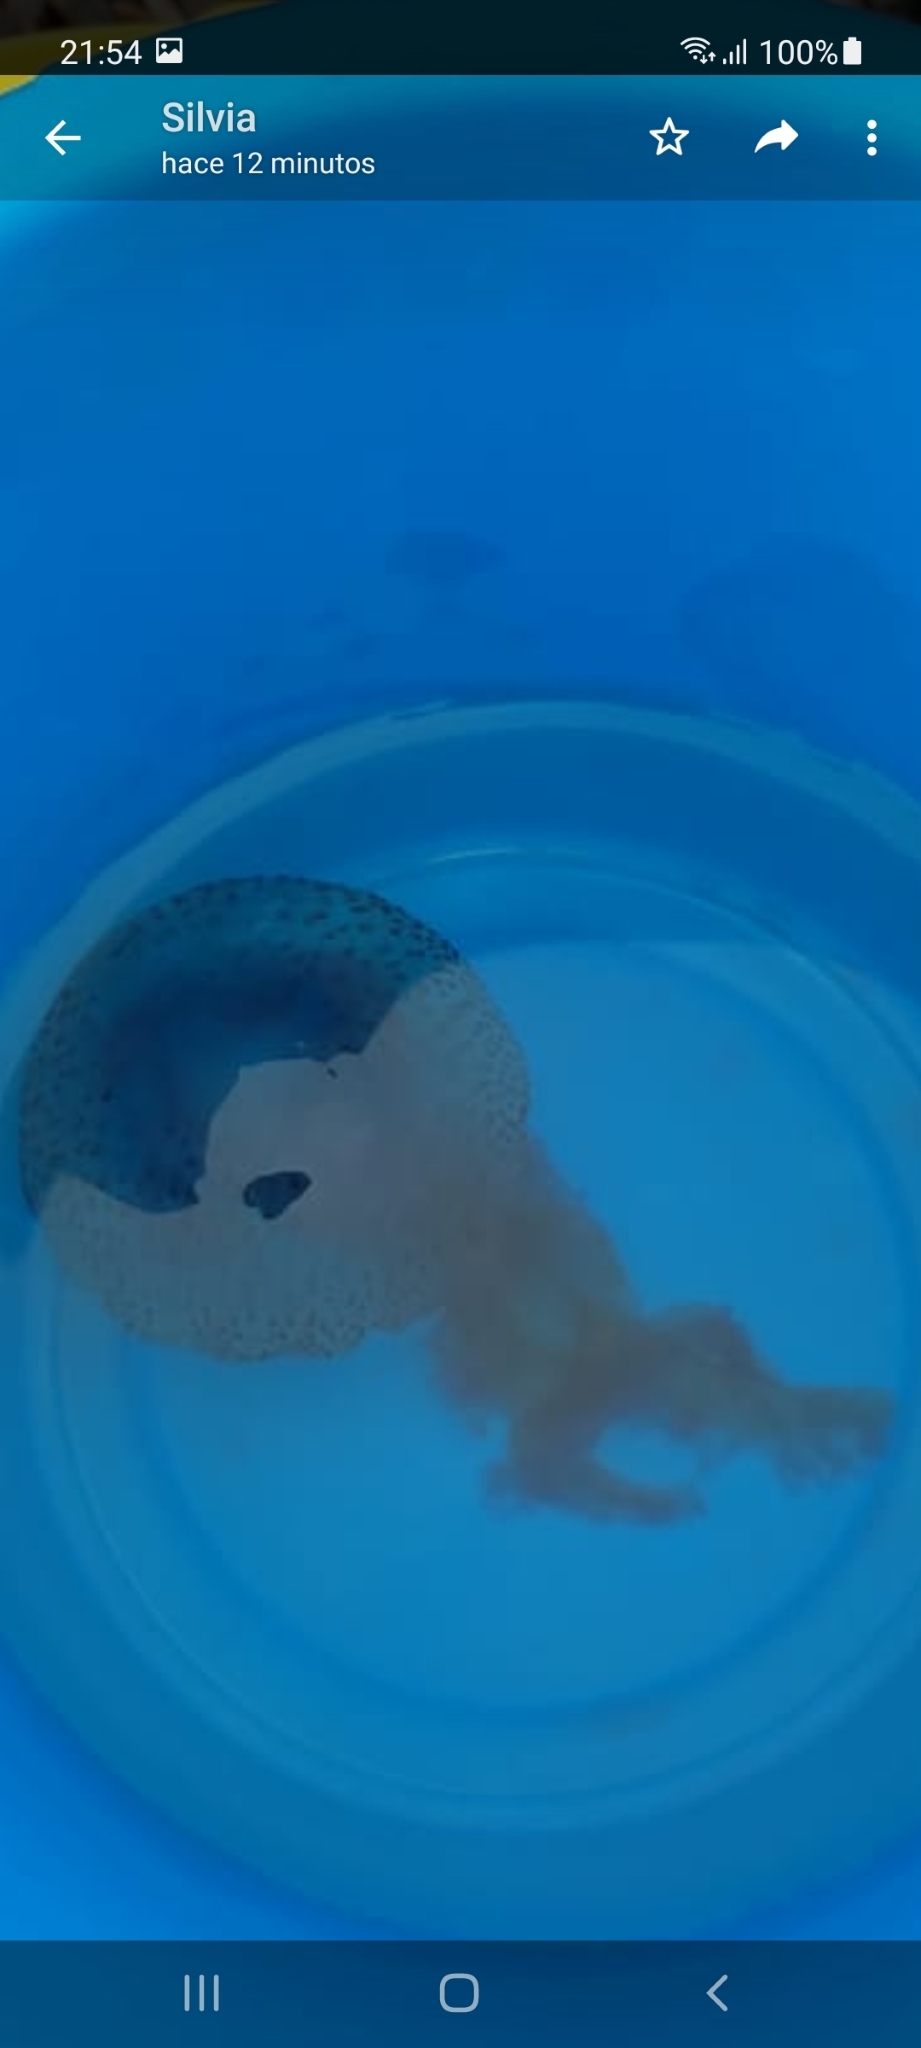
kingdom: Animalia
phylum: Cnidaria
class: Scyphozoa
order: Semaeostomeae
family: Pelagiidae
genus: Pelagia
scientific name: Pelagia noctiluca
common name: Mauve stinger
